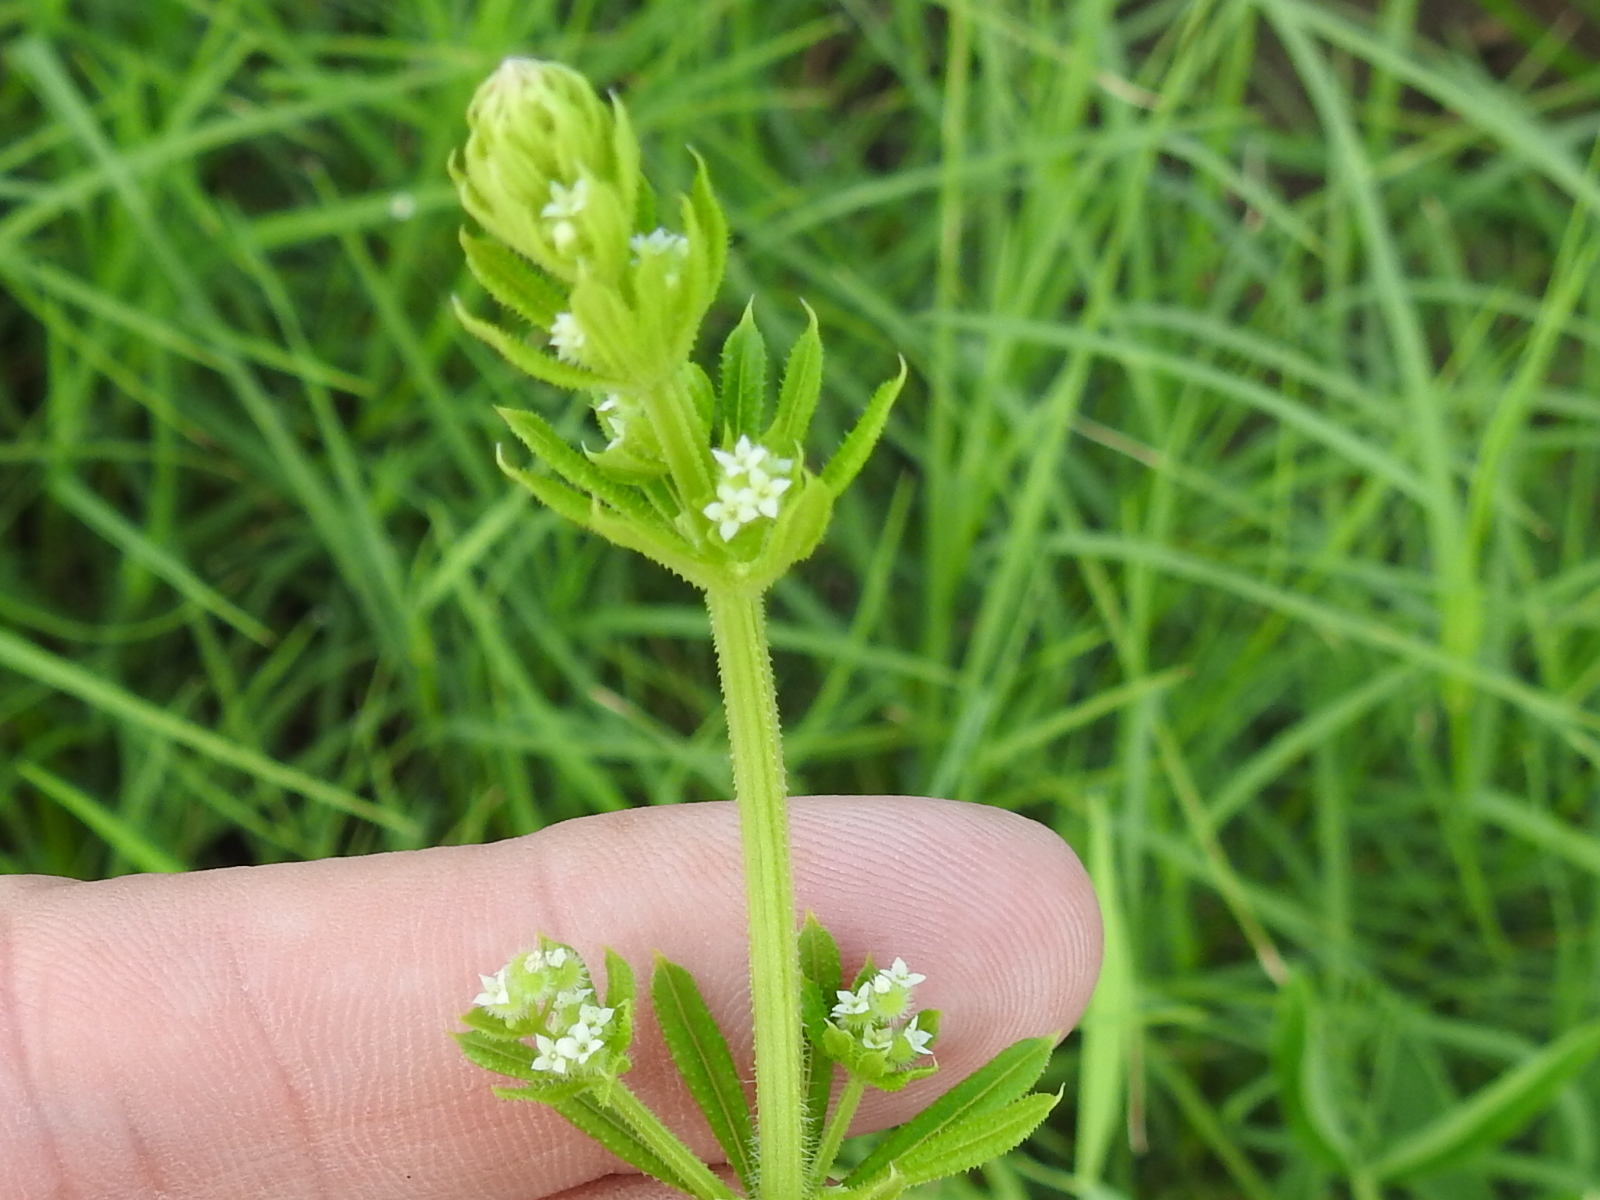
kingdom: Plantae
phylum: Tracheophyta
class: Magnoliopsida
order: Gentianales
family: Rubiaceae
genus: Galium
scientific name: Galium aparine
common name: Cleavers
